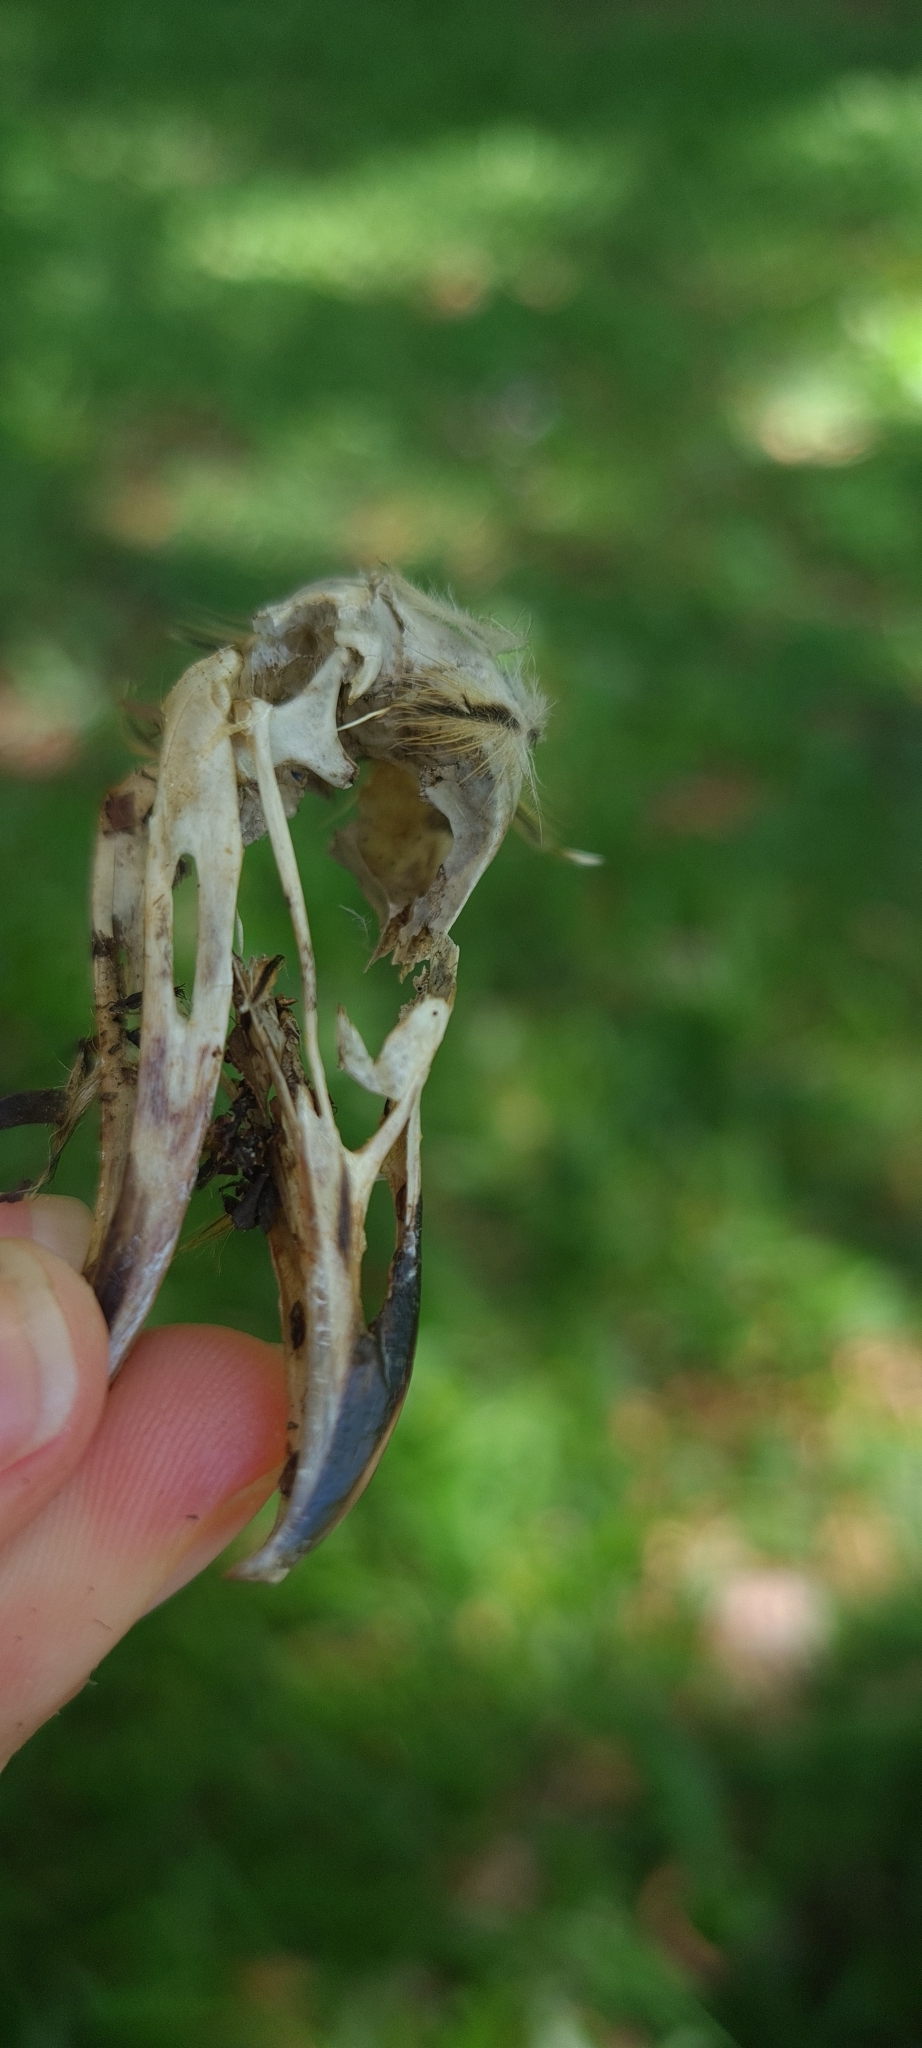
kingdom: Animalia
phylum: Chordata
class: Aves
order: Cuculiformes
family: Cuculidae
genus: Guira
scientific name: Guira guira
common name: Guira cuckoo
